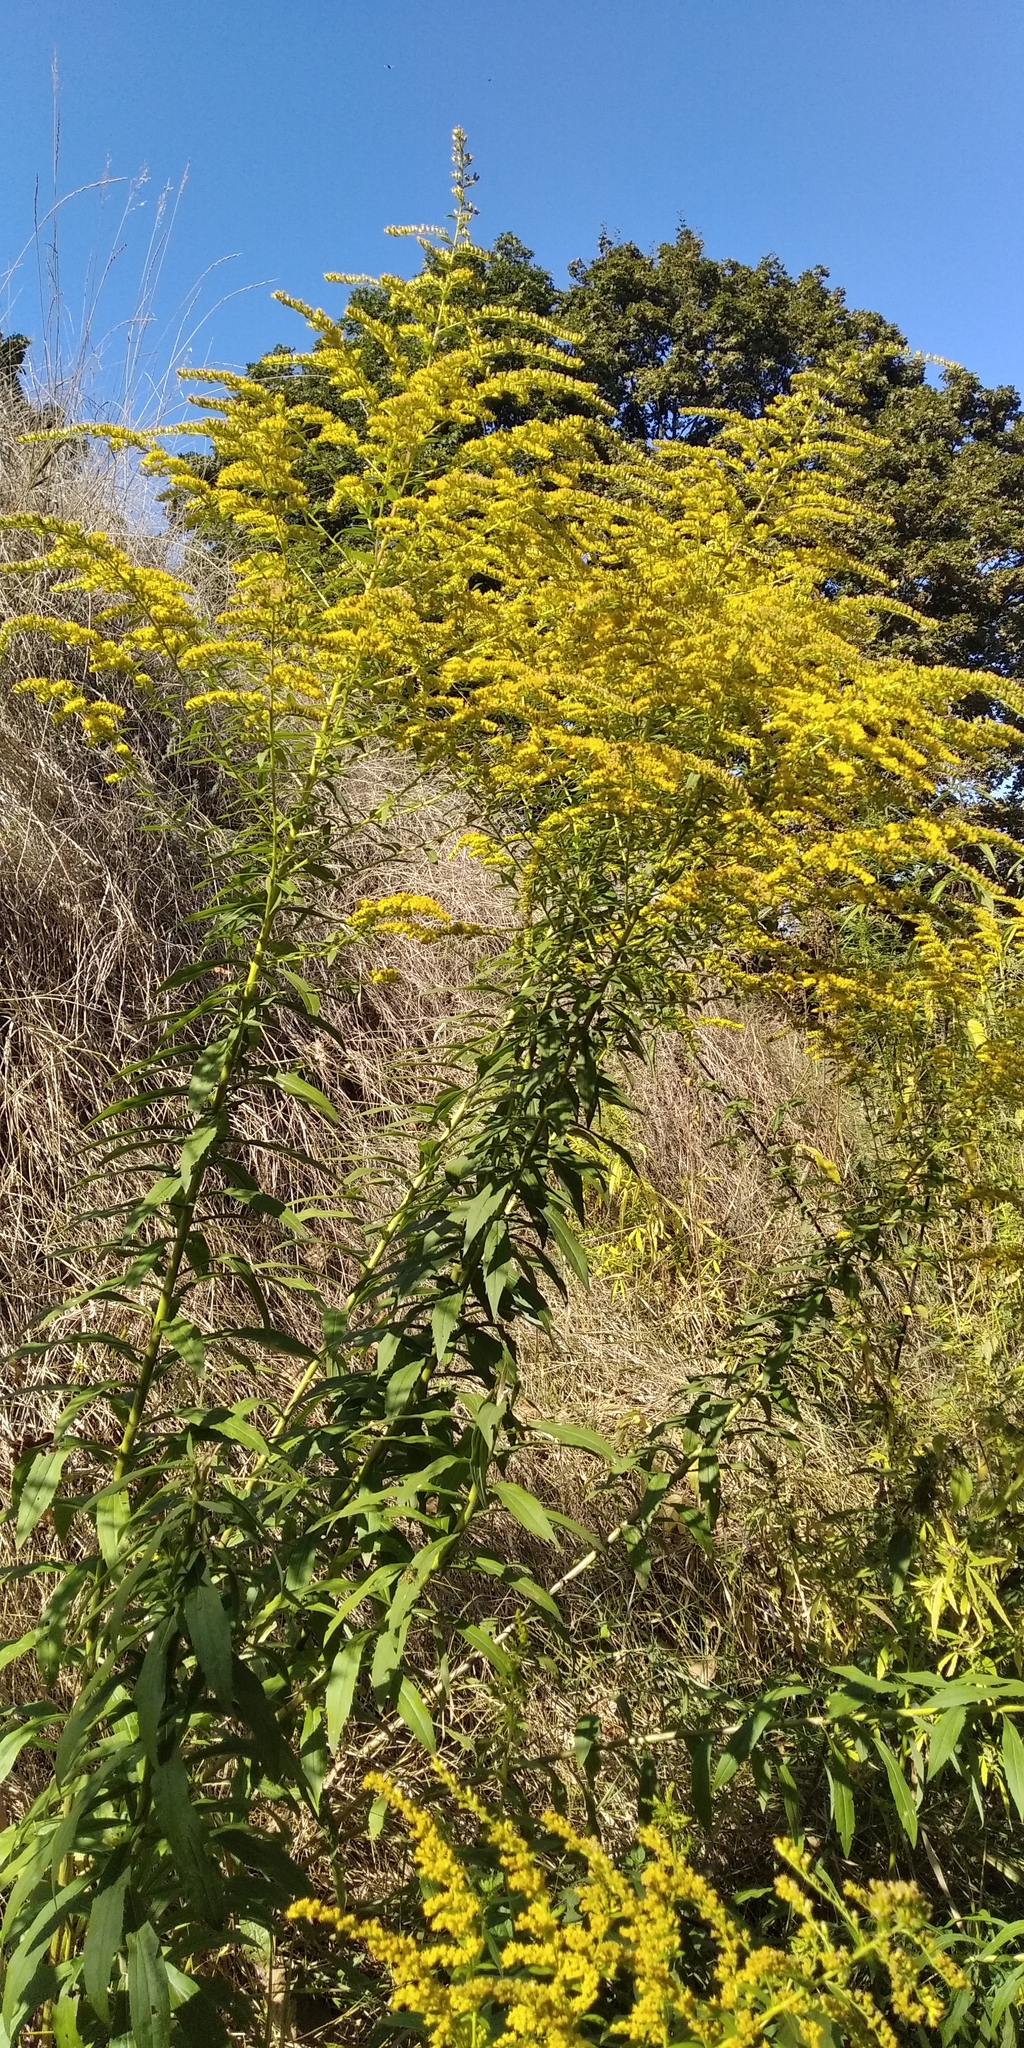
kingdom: Plantae
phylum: Tracheophyta
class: Magnoliopsida
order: Asterales
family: Asteraceae
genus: Solidago
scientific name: Solidago canadensis
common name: Canada goldenrod
